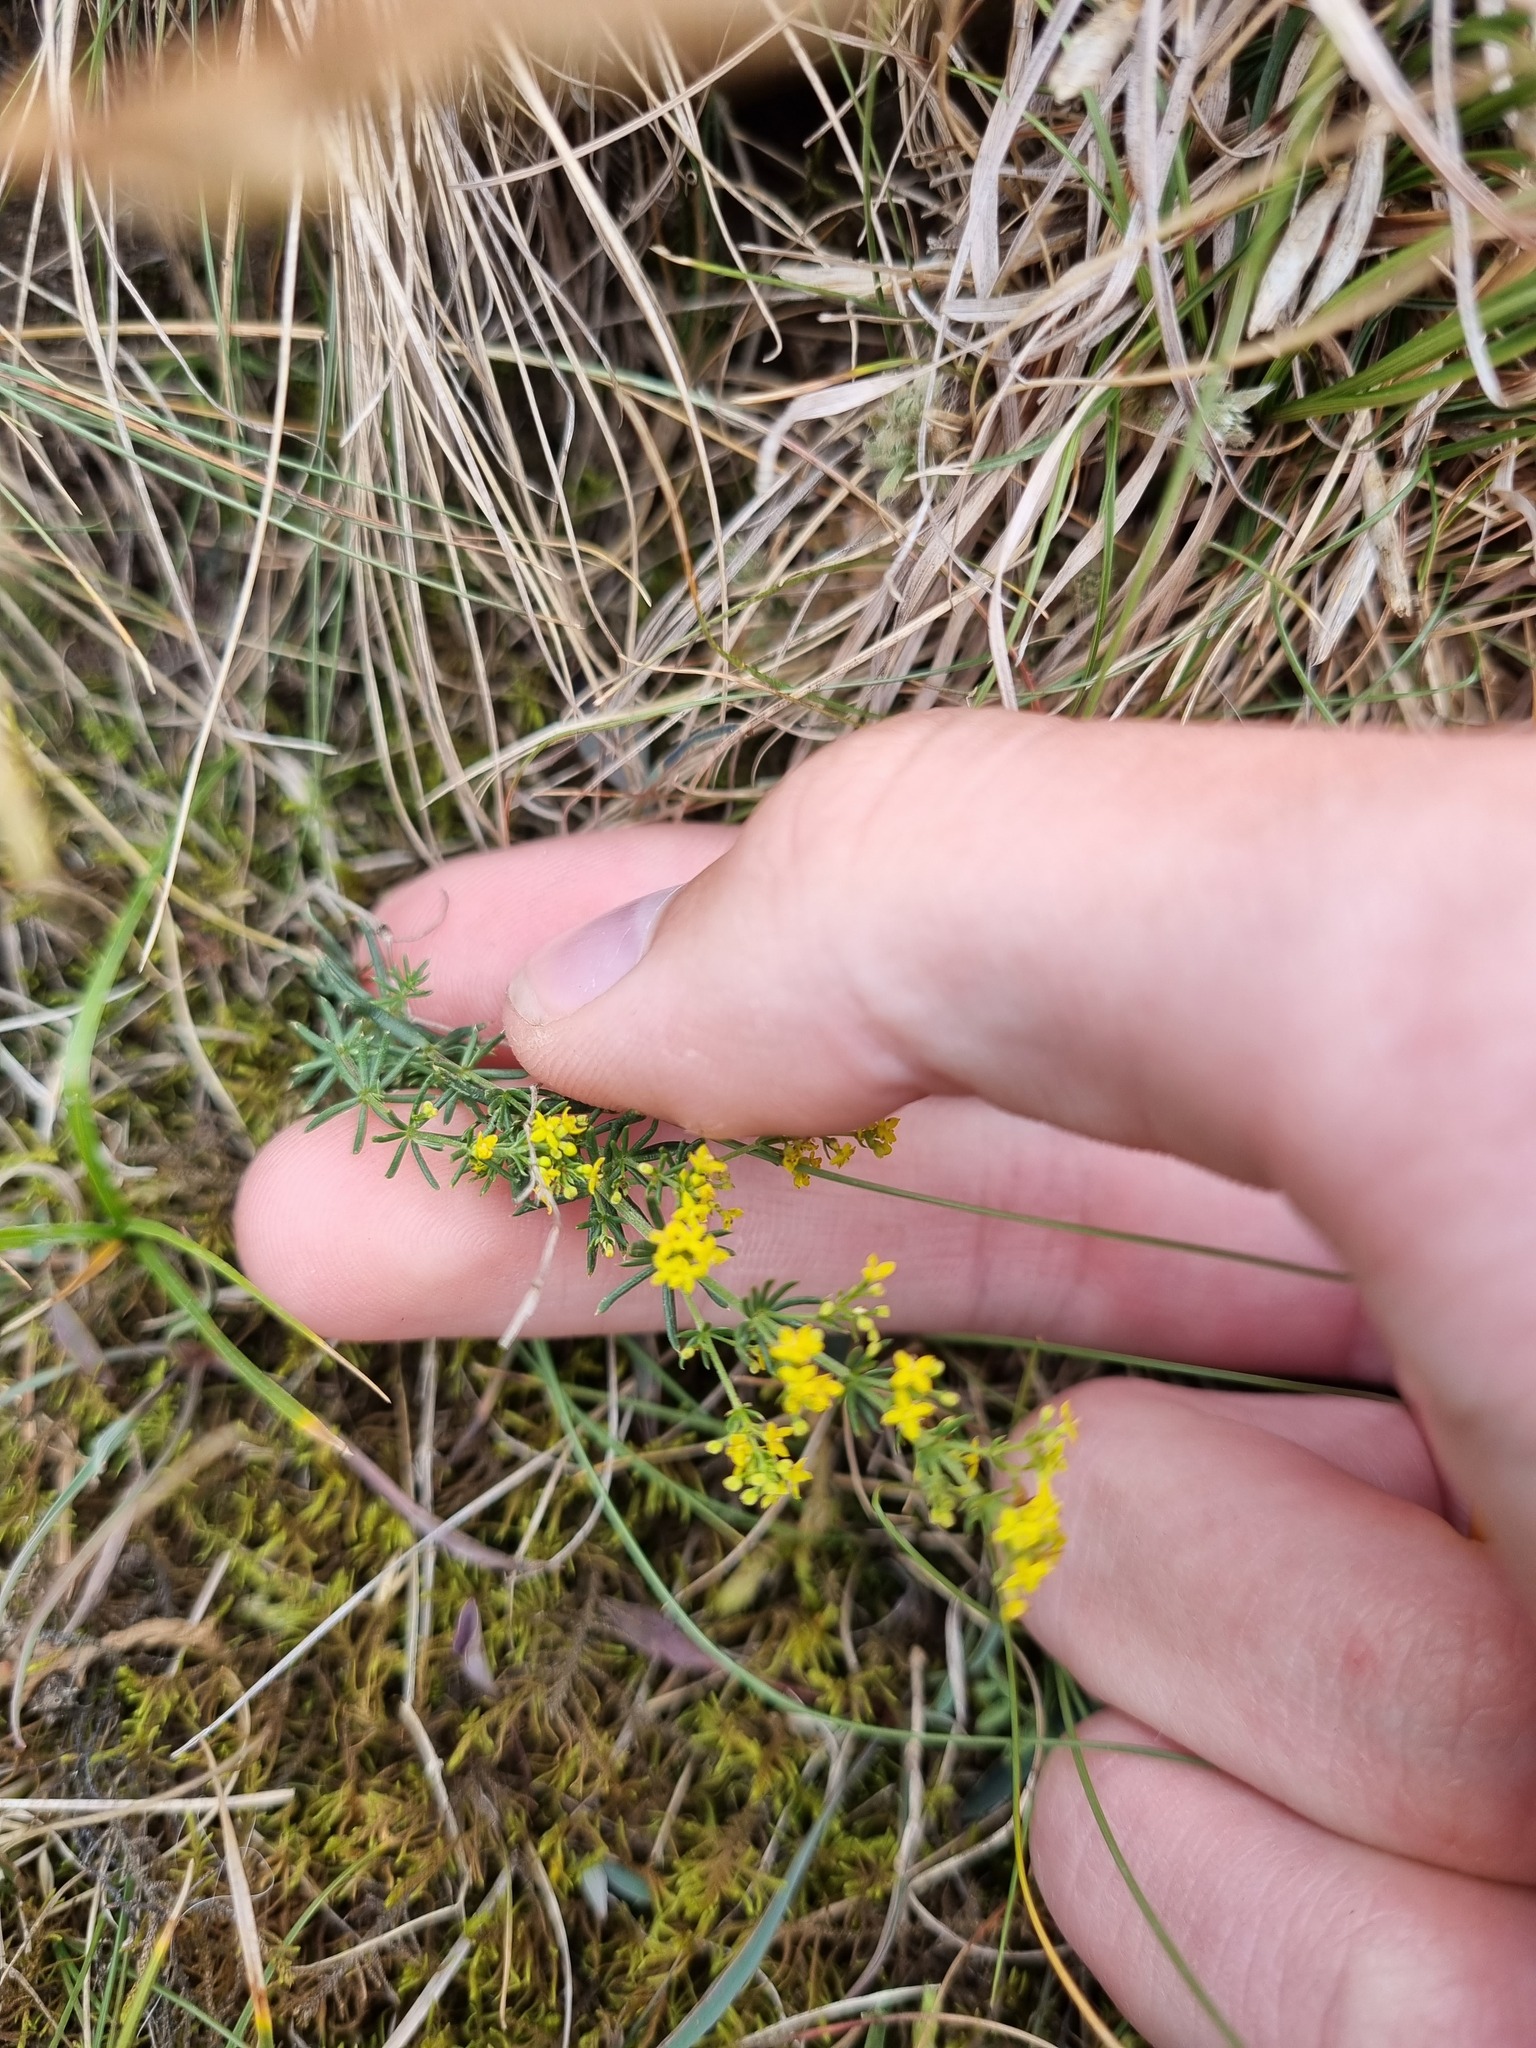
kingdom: Plantae
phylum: Tracheophyta
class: Magnoliopsida
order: Gentianales
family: Rubiaceae
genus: Galium
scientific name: Galium verum
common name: Lady's bedstraw
